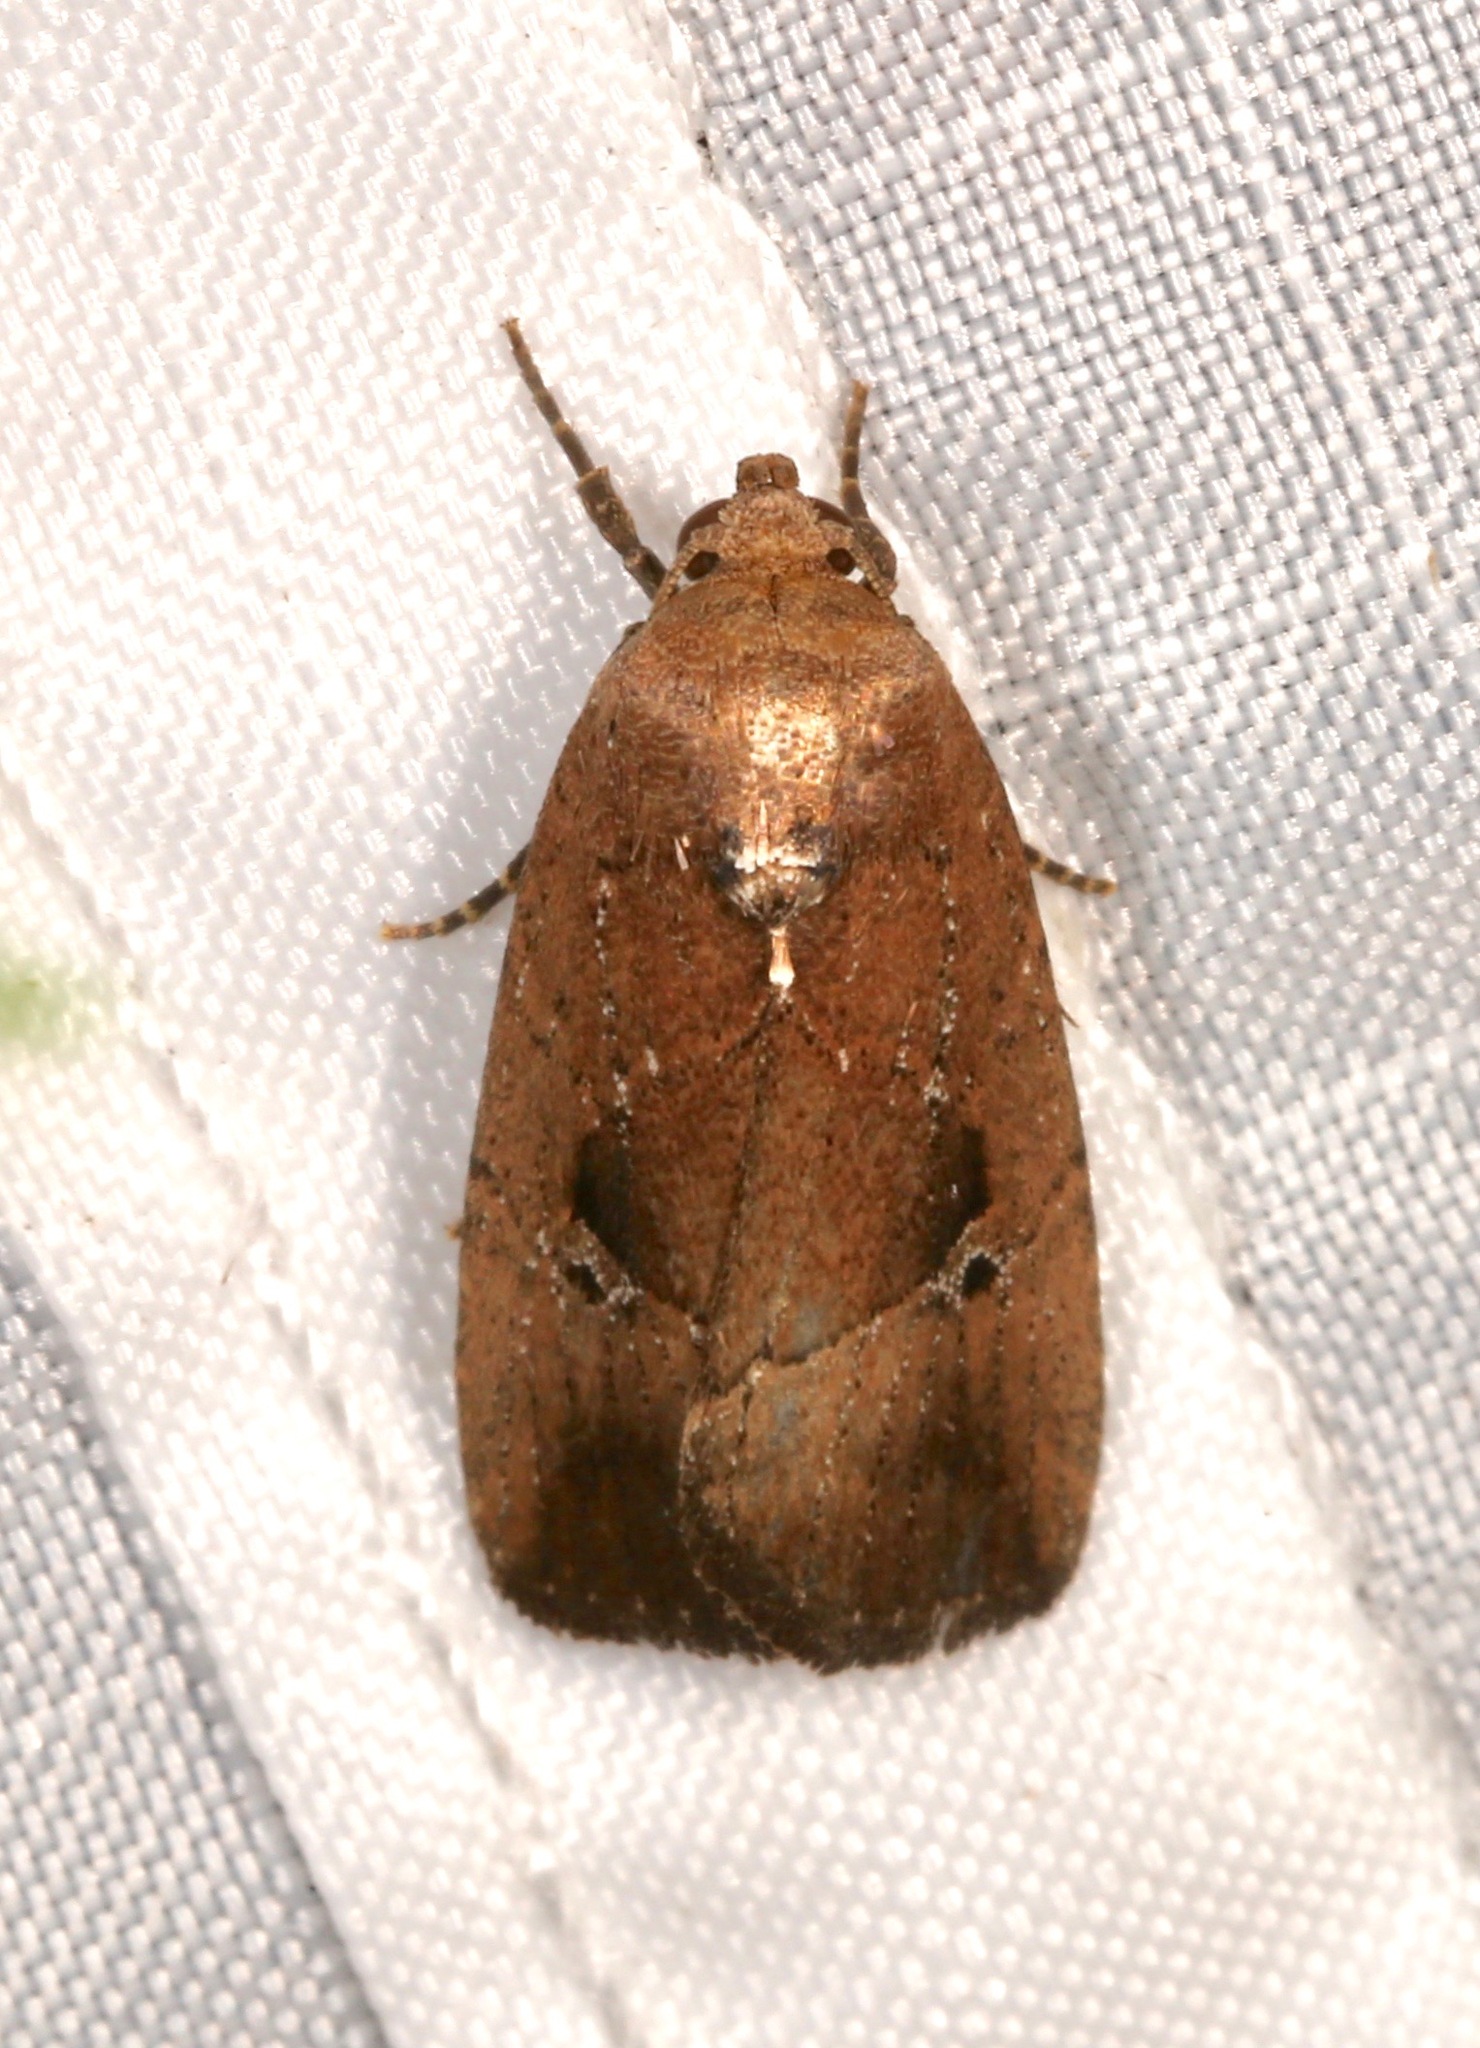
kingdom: Animalia
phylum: Arthropoda
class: Insecta
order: Lepidoptera
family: Noctuidae
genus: Elaphria
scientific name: Elaphria nucicolora
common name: Sugarcane midget moth
